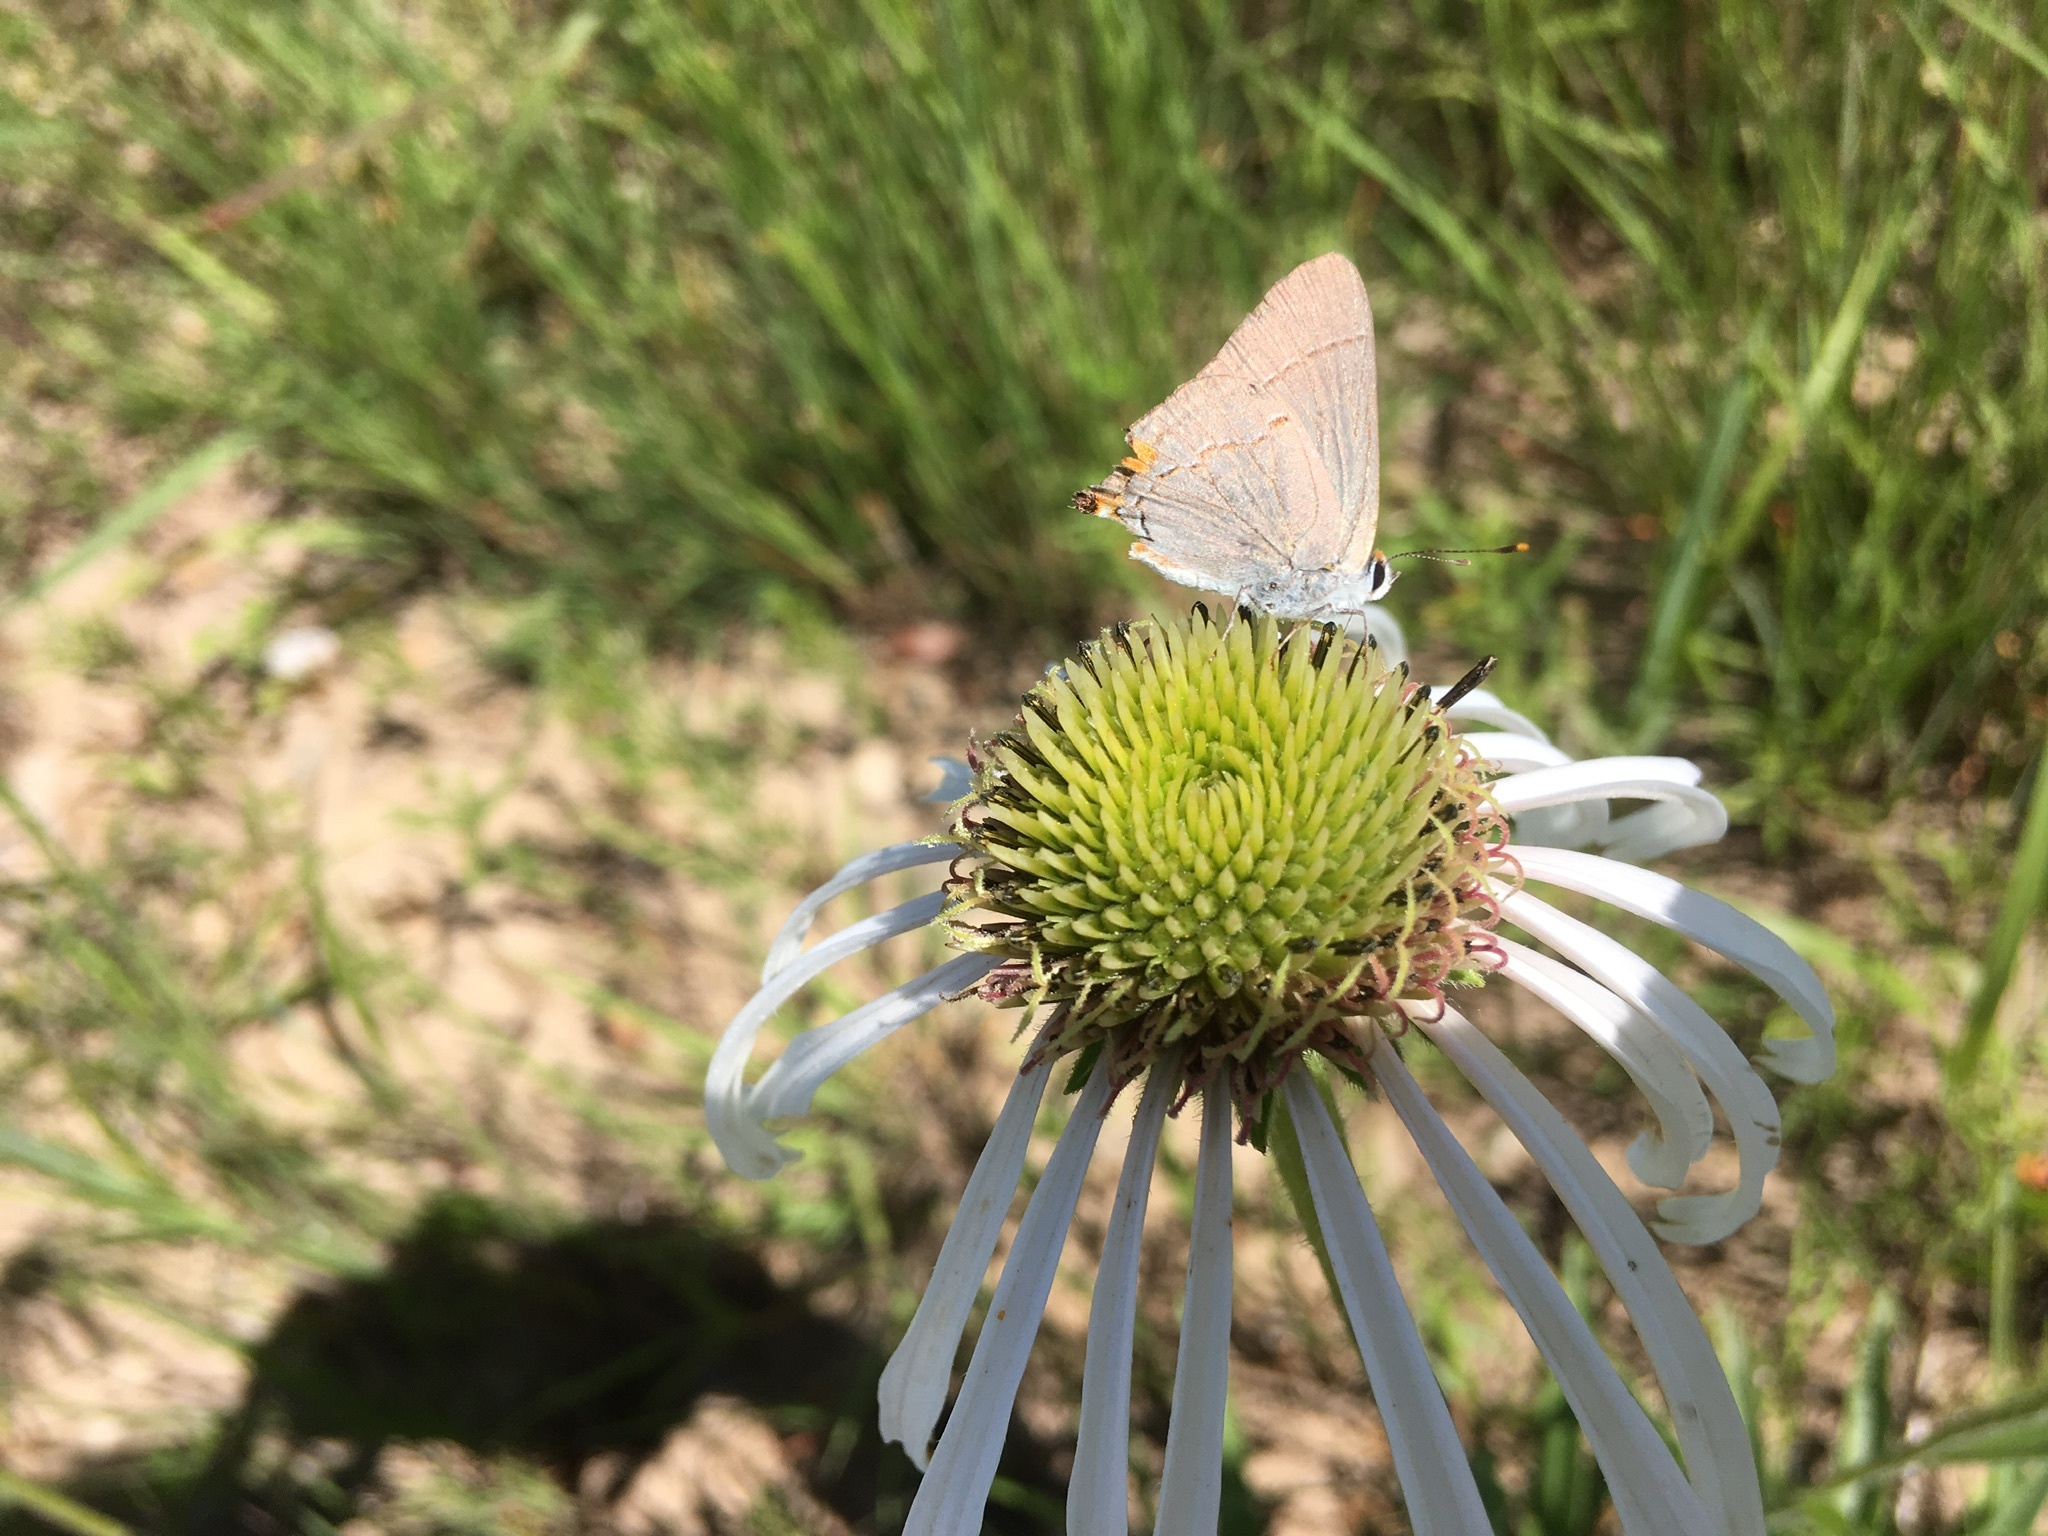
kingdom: Animalia
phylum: Arthropoda
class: Insecta
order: Lepidoptera
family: Lycaenidae
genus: Strymon
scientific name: Strymon melinus
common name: Gray hairstreak
